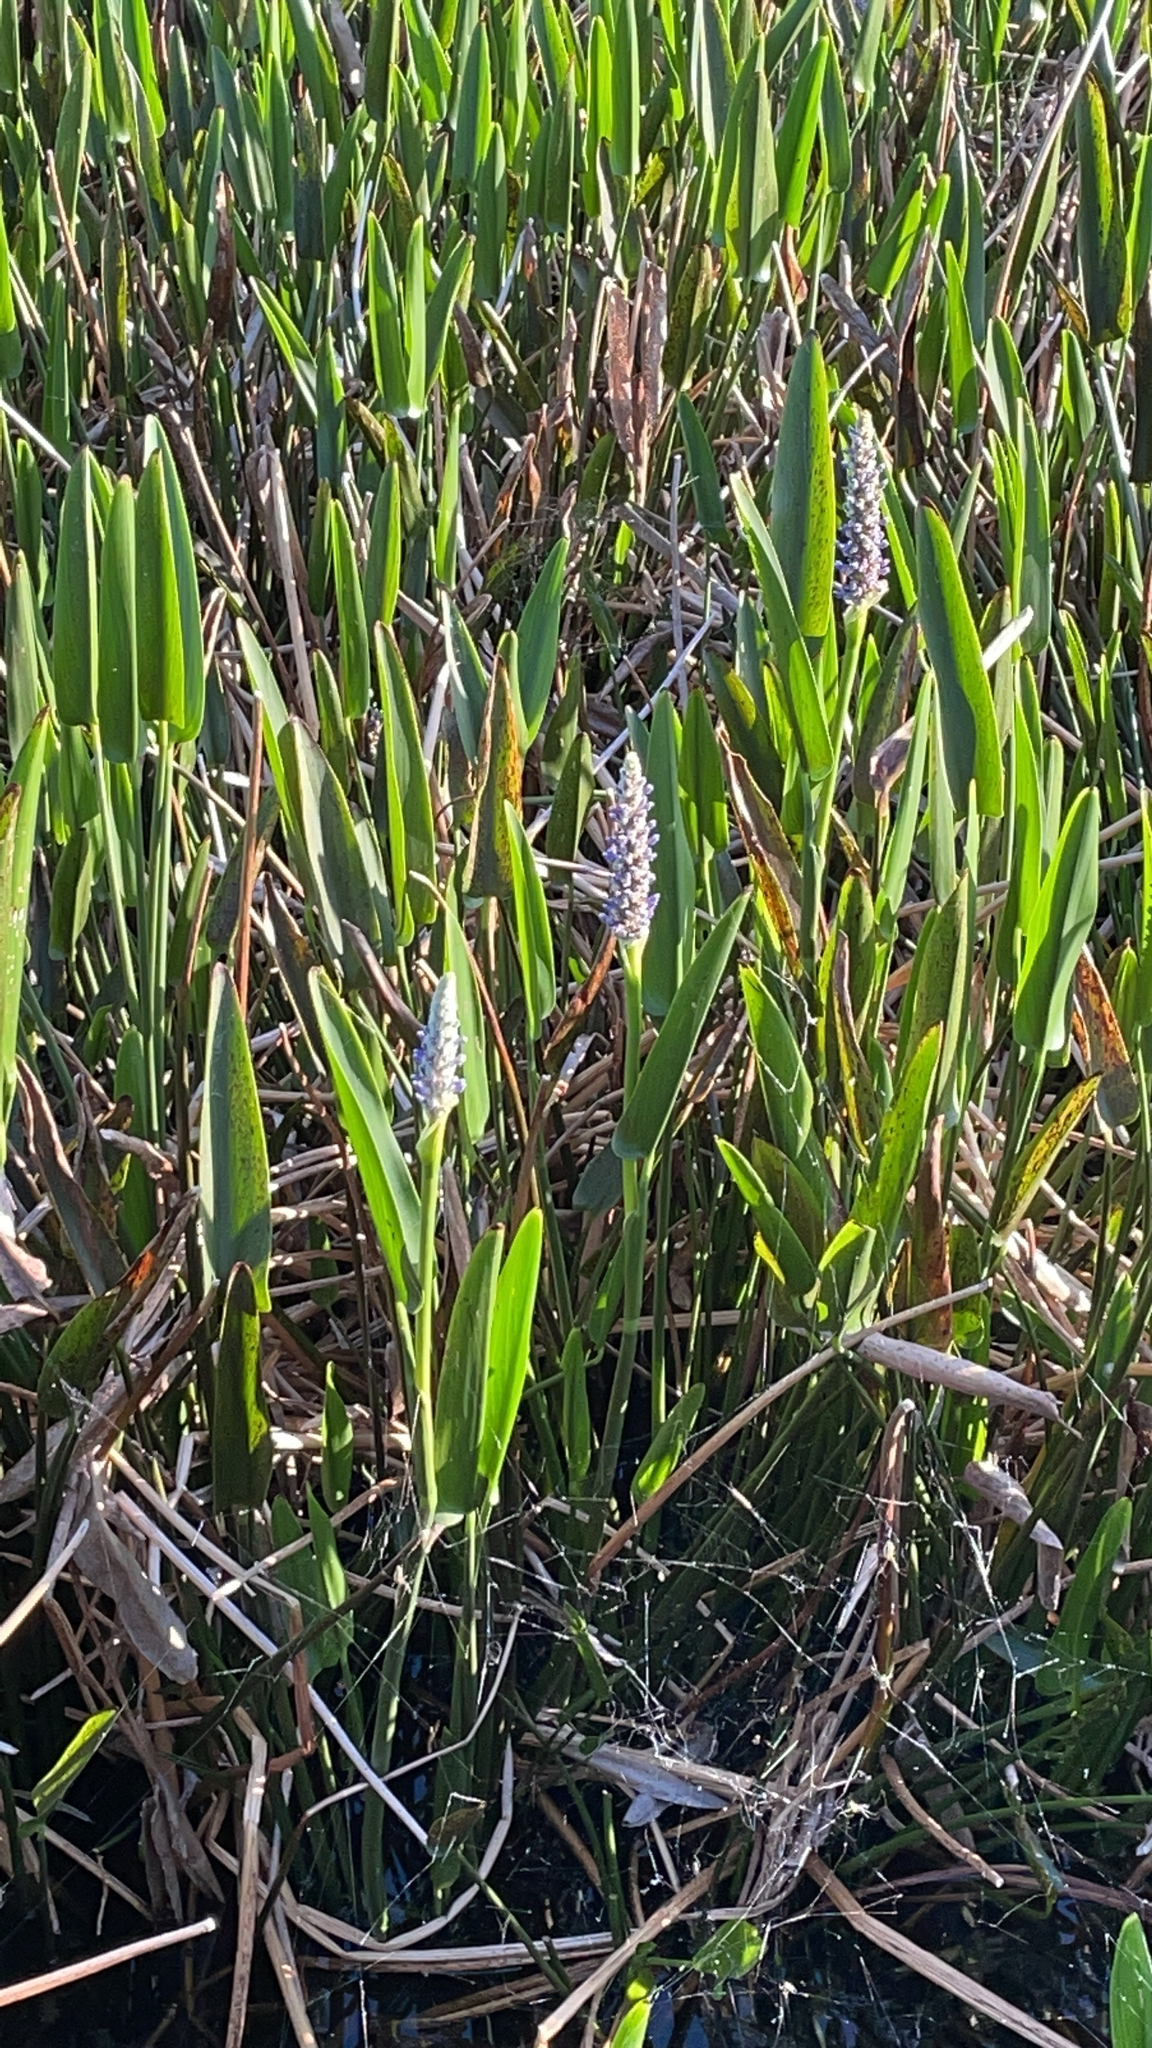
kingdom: Plantae
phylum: Tracheophyta
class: Liliopsida
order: Commelinales
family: Pontederiaceae
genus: Pontederia
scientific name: Pontederia cordata
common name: Pickerelweed
